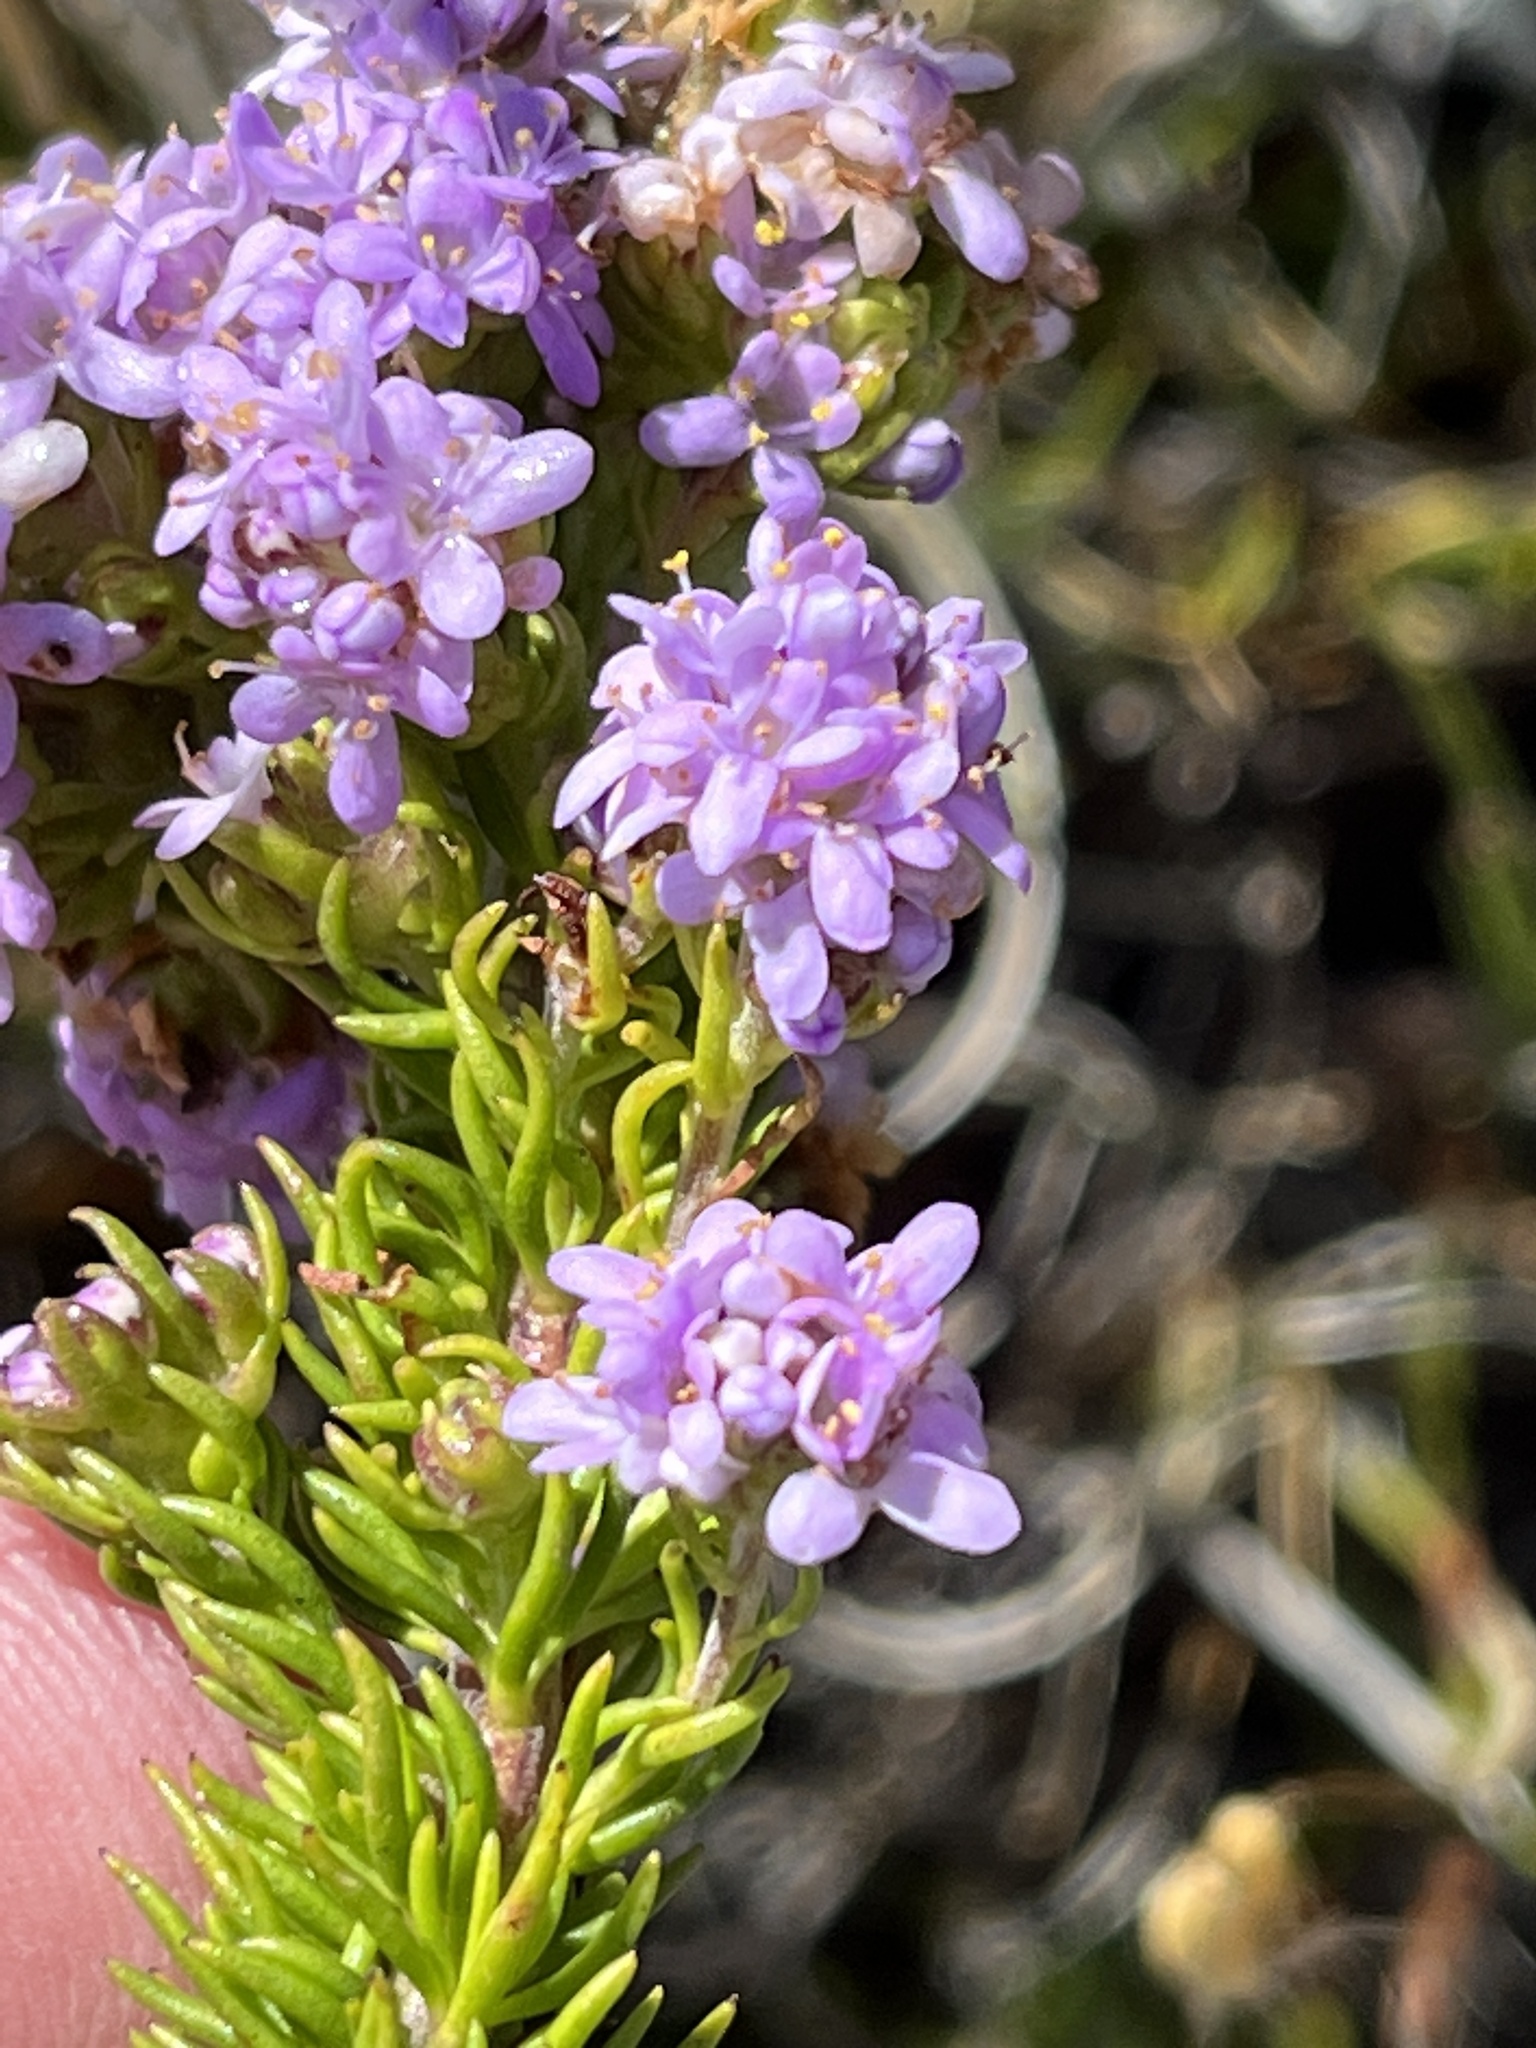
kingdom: Plantae
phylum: Tracheophyta
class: Magnoliopsida
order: Lamiales
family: Scrophulariaceae
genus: Selago
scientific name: Selago pulchra
